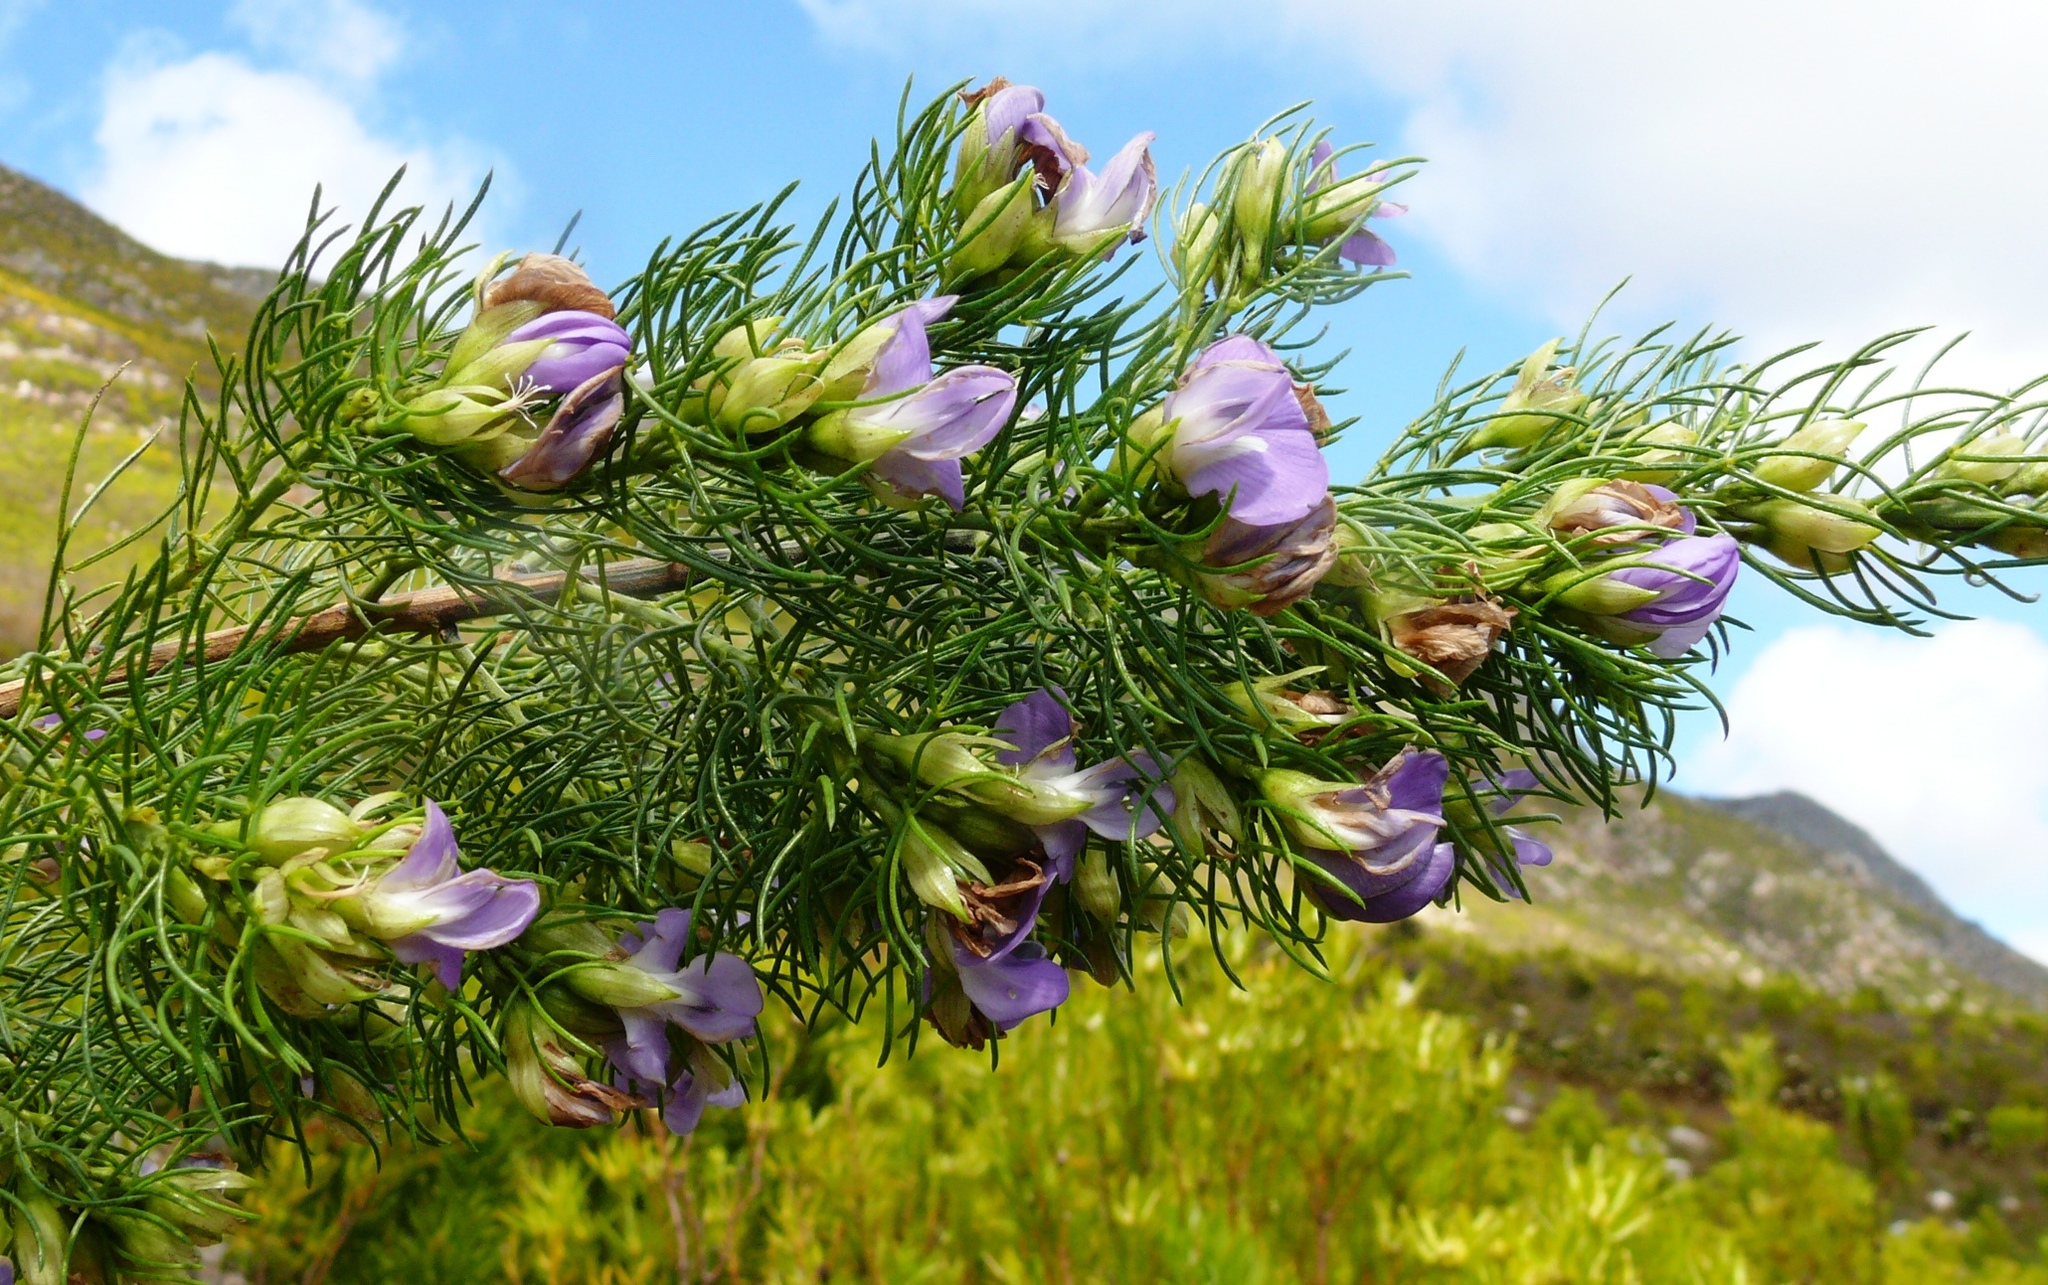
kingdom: Plantae
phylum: Tracheophyta
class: Magnoliopsida
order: Fabales
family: Fabaceae
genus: Psoralea
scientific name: Psoralea speciosa
